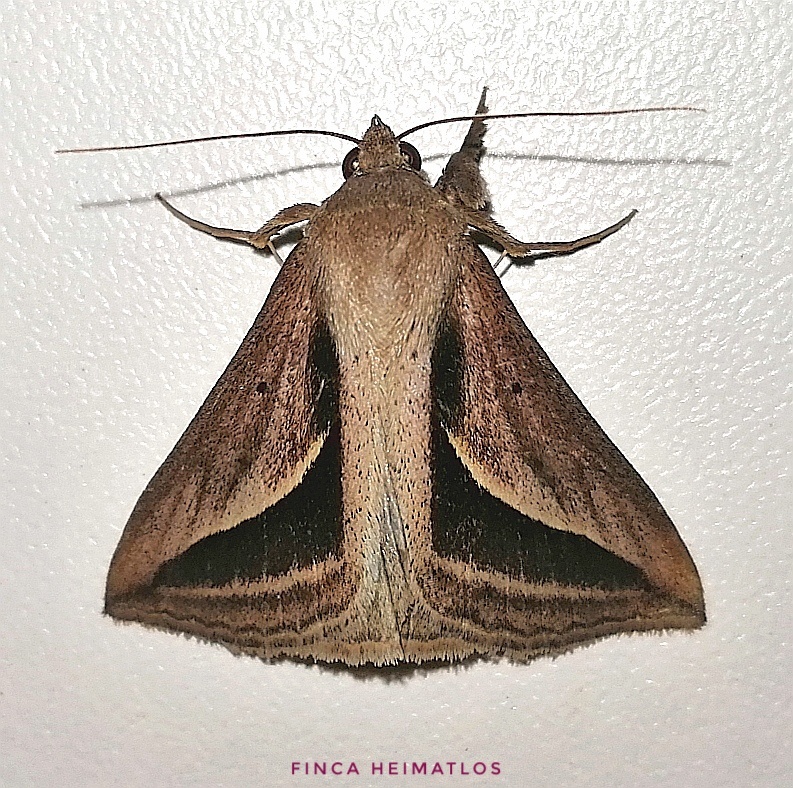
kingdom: Animalia
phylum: Arthropoda
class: Insecta
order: Lepidoptera
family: Erebidae
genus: Mocis
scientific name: Mocis dyndima
